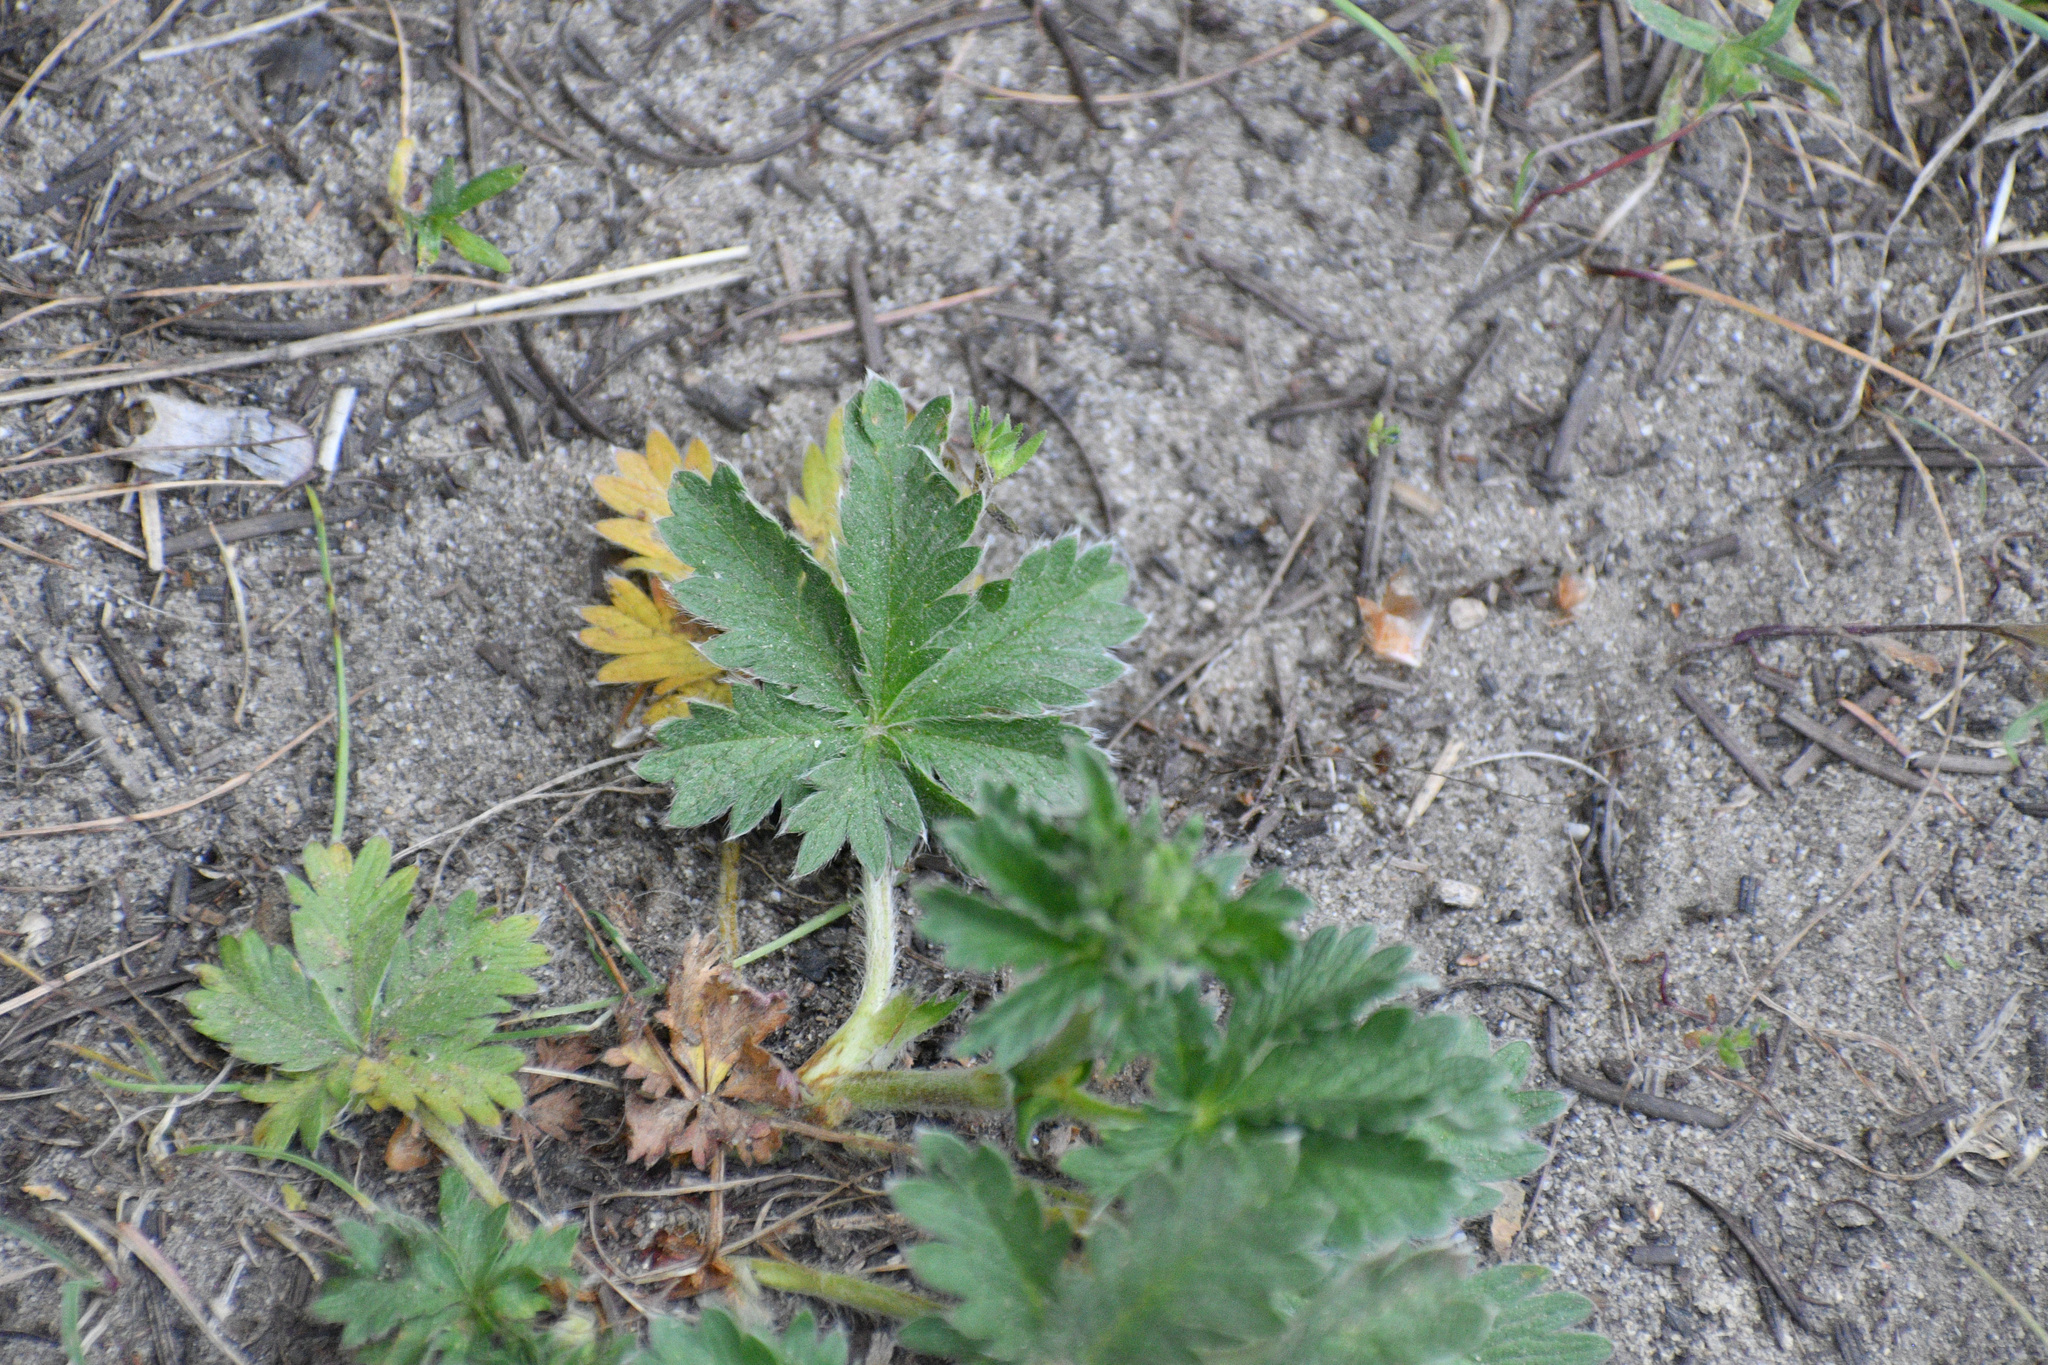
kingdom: Plantae
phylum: Tracheophyta
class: Magnoliopsida
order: Rosales
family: Rosaceae
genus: Potentilla
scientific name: Potentilla gracilis
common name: Graceful cinquefoil
